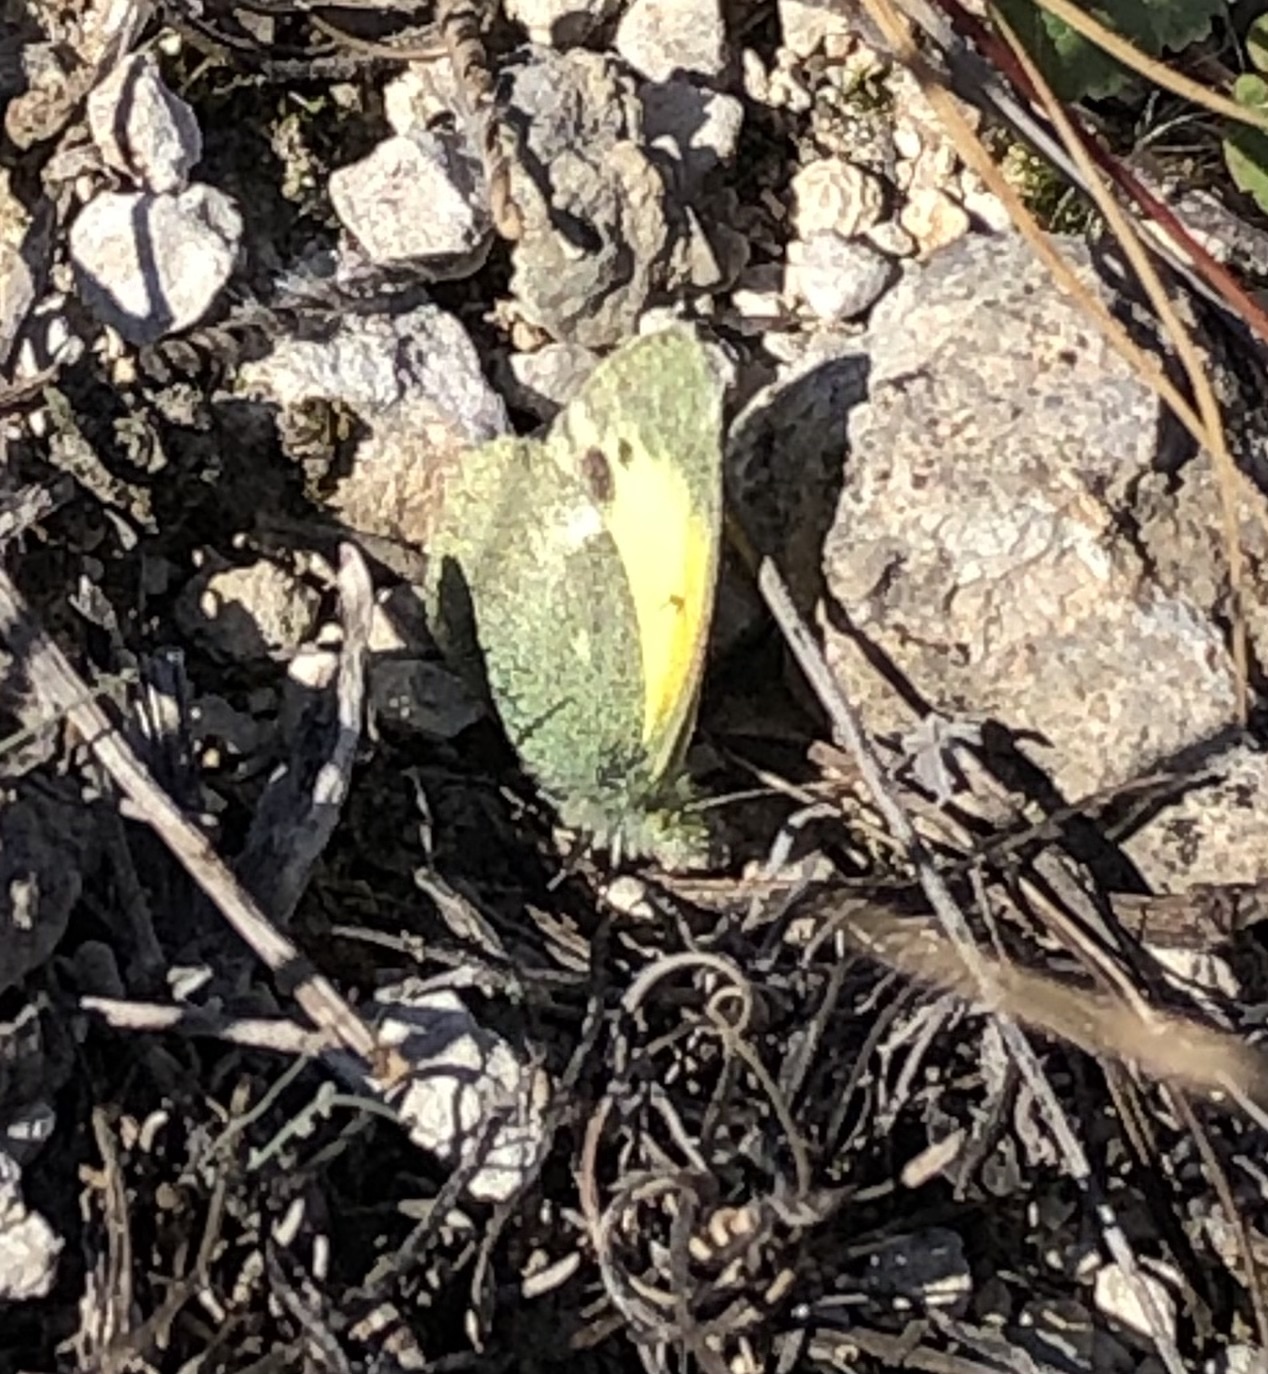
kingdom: Animalia
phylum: Arthropoda
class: Insecta
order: Lepidoptera
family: Pieridae
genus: Nathalis
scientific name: Nathalis iole
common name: Dainty sulphur
